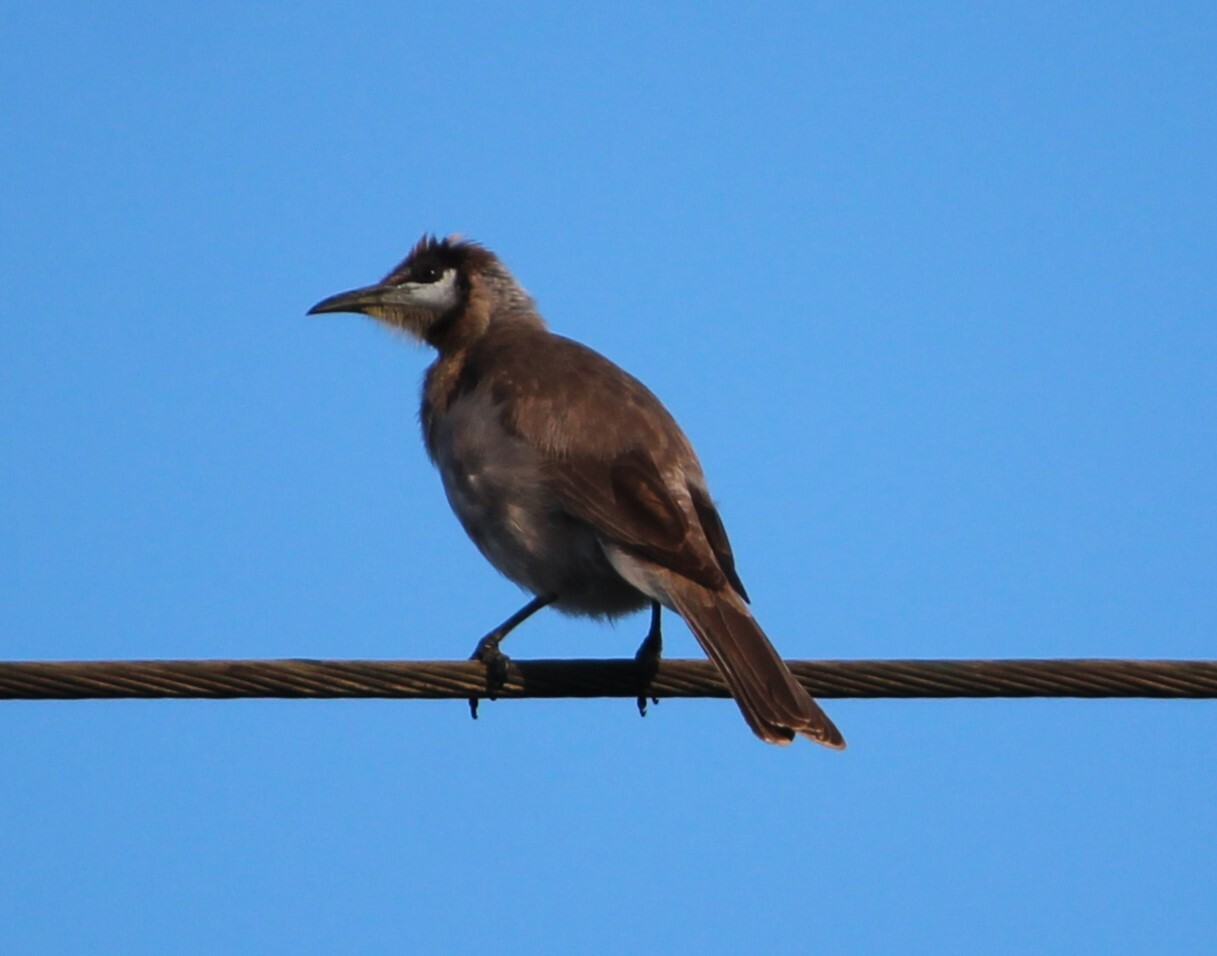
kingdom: Animalia
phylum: Chordata
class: Aves
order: Passeriformes
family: Meliphagidae
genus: Philemon
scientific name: Philemon citreogularis
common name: Little friarbird
